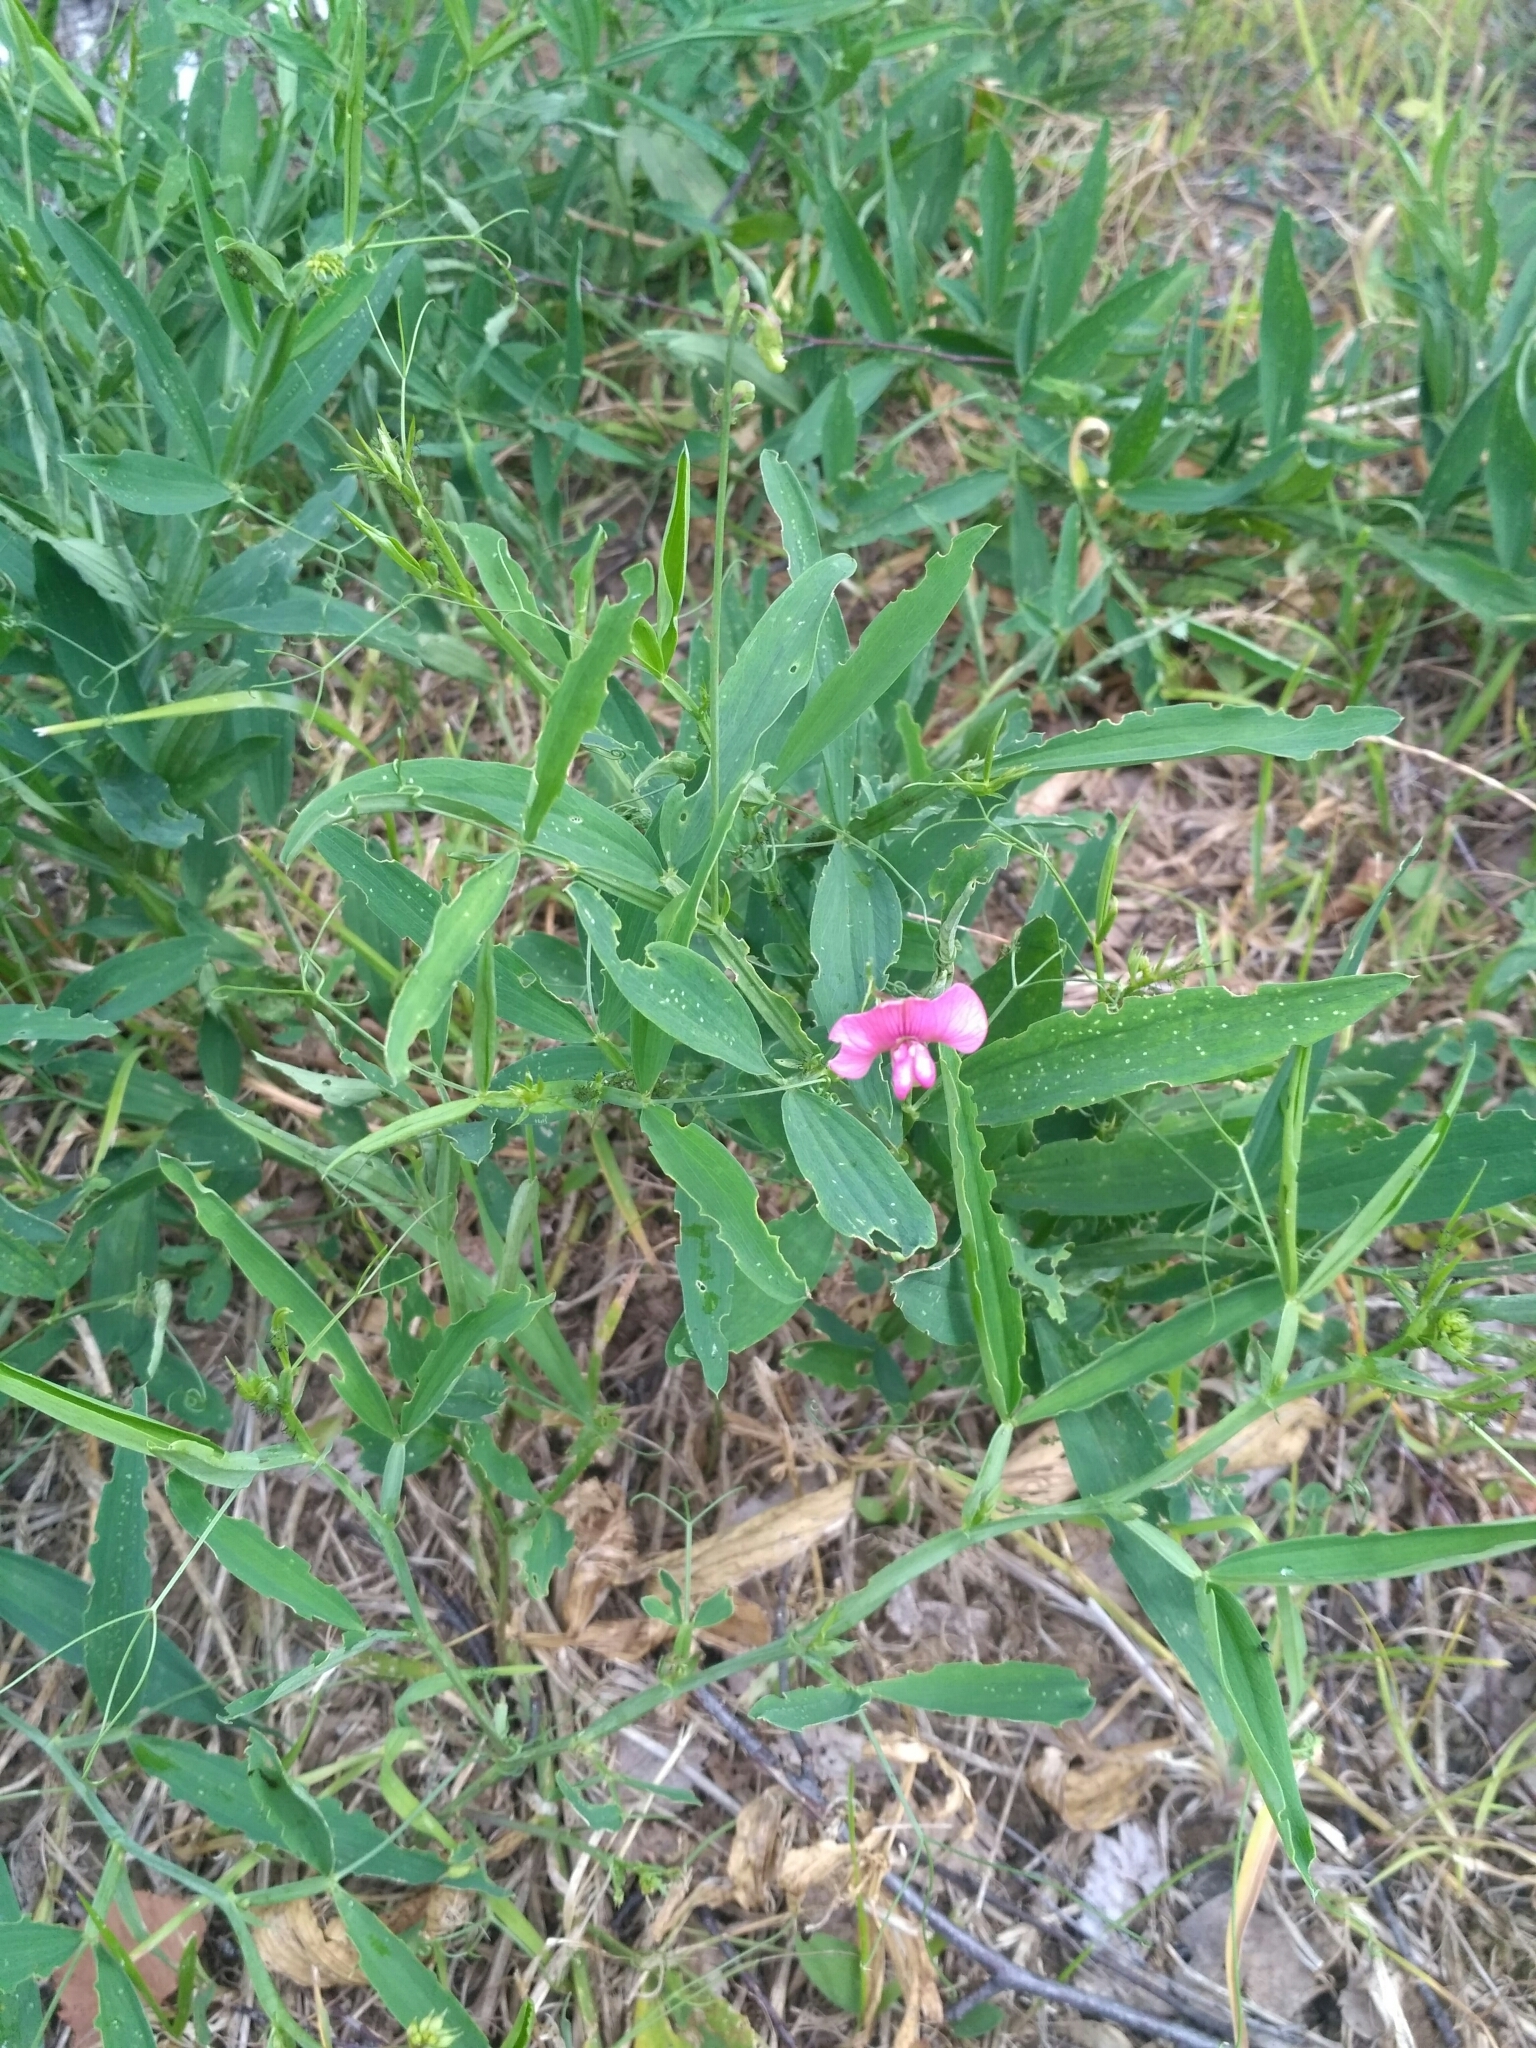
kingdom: Plantae
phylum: Tracheophyta
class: Magnoliopsida
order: Fabales
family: Fabaceae
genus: Lathyrus
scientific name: Lathyrus sylvestris
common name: Flat pea
